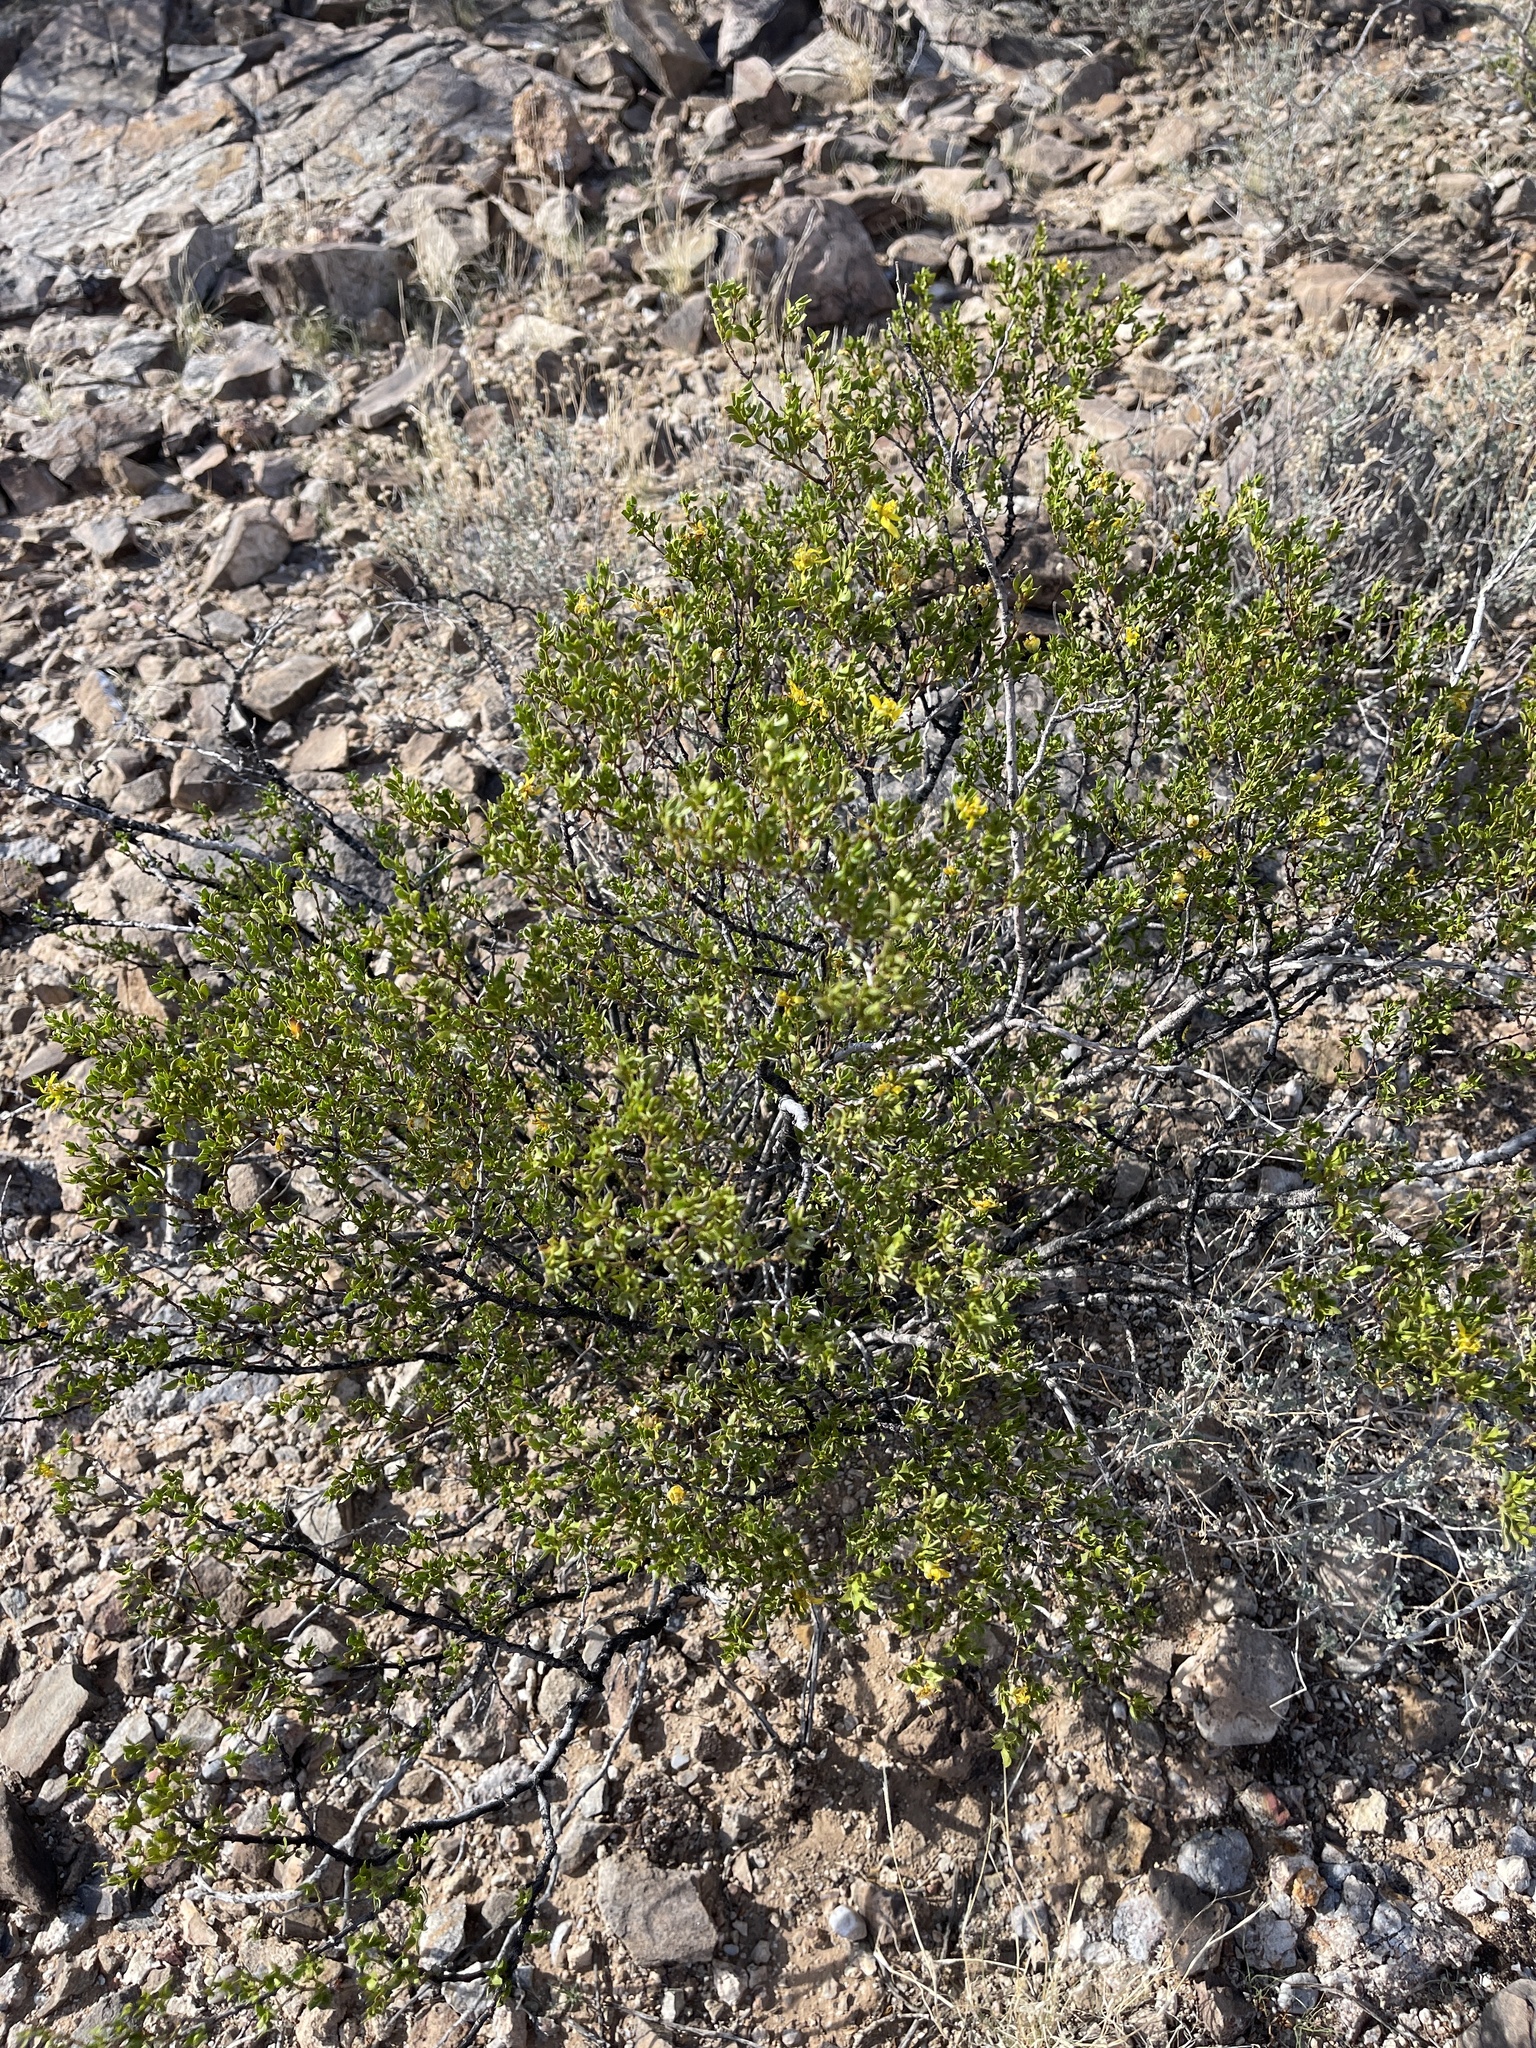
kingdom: Plantae
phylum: Tracheophyta
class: Magnoliopsida
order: Zygophyllales
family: Zygophyllaceae
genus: Larrea
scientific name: Larrea tridentata
